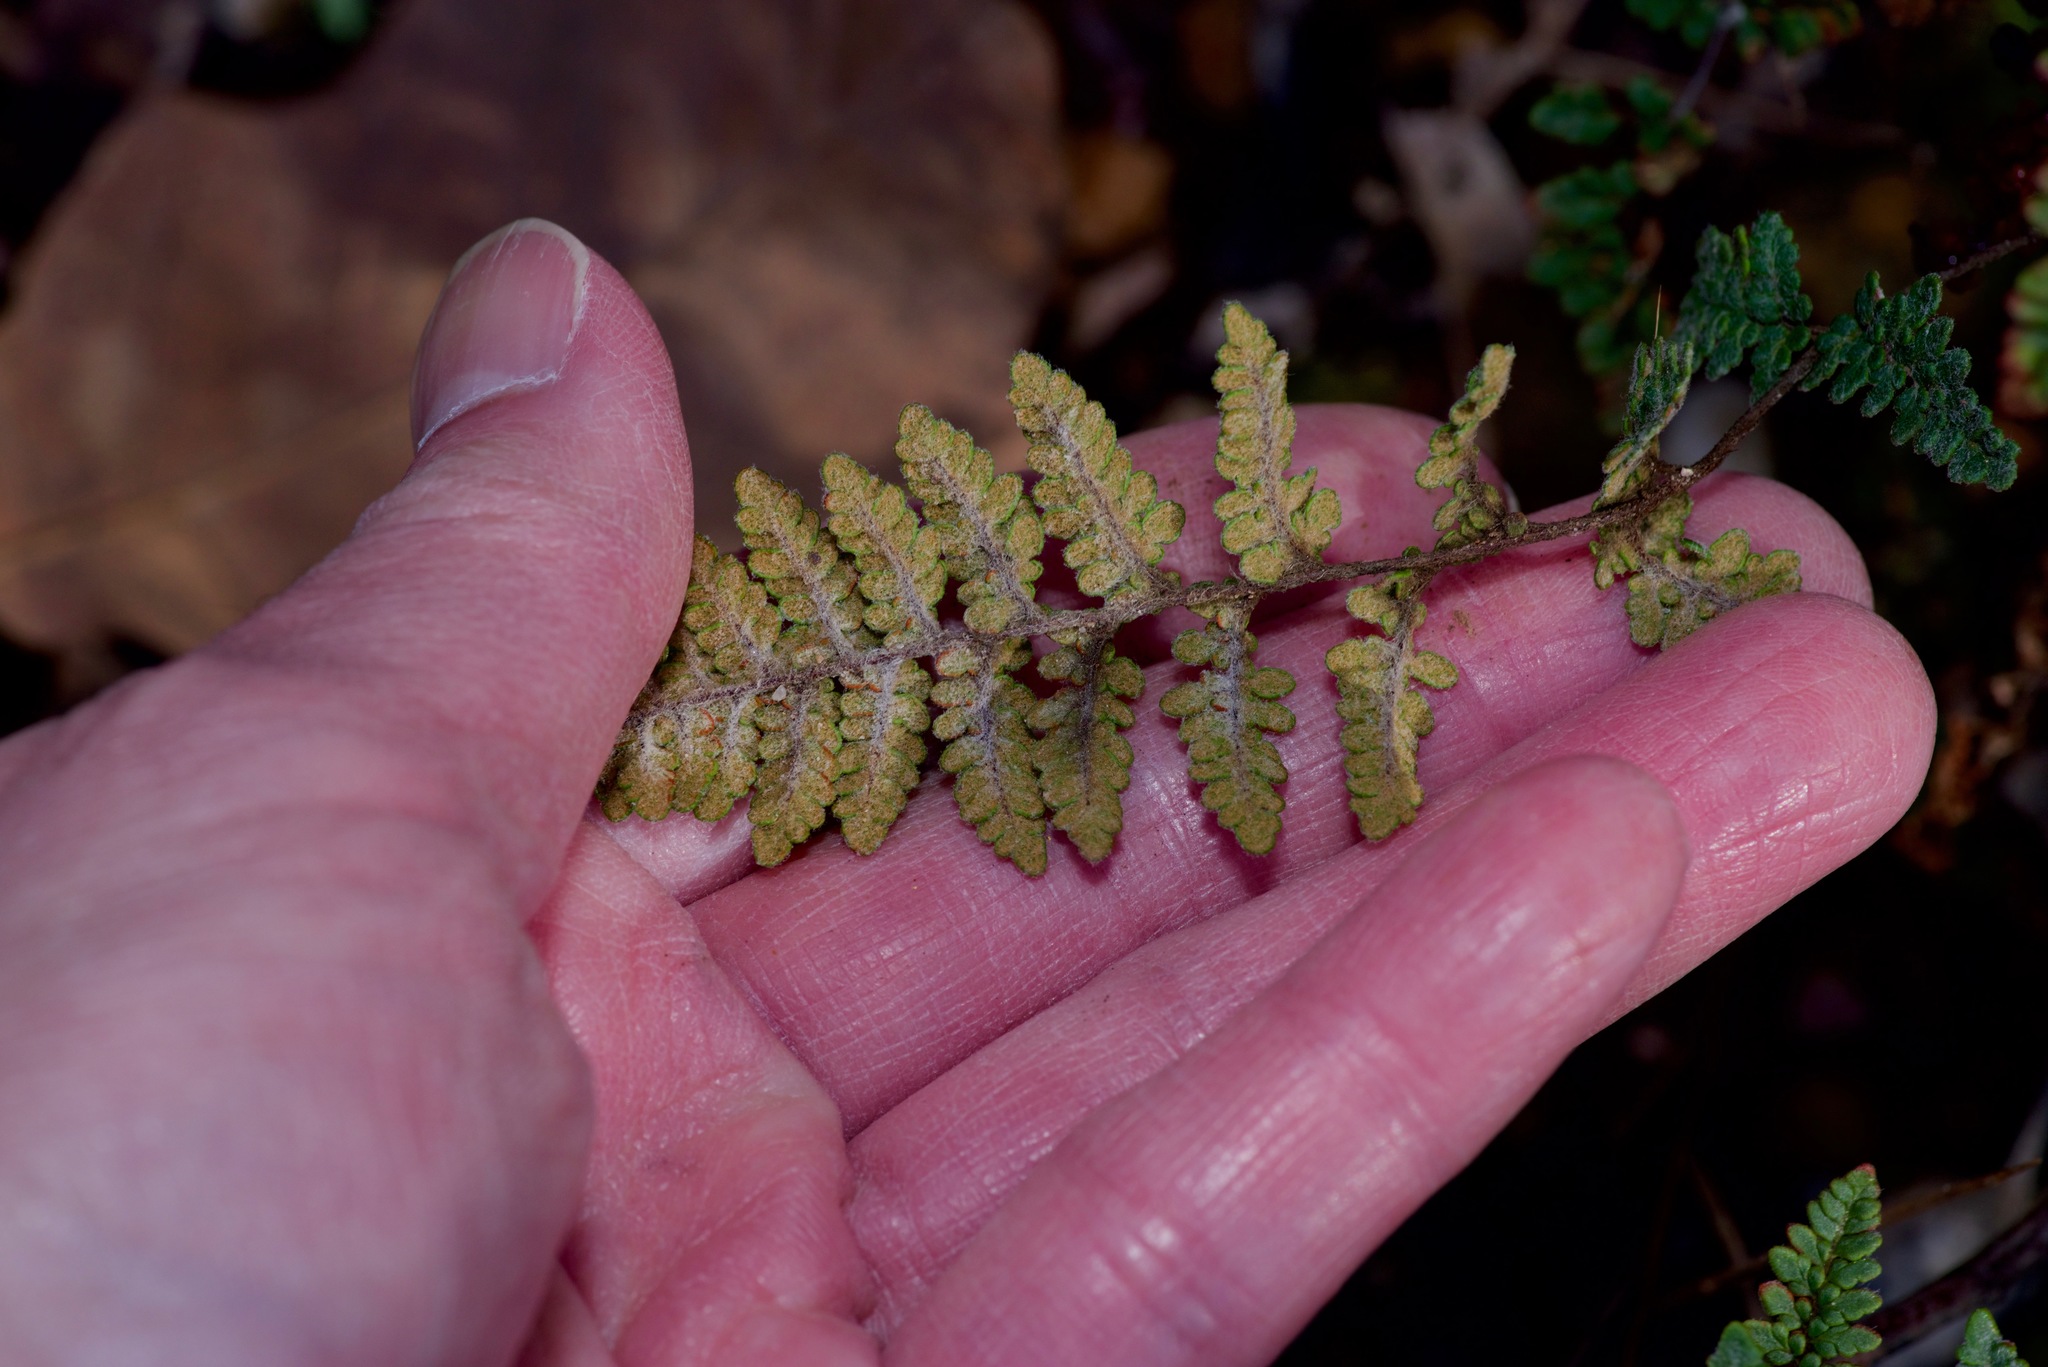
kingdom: Plantae
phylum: Tracheophyta
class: Polypodiopsida
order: Polypodiales
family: Pteridaceae
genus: Myriopteris
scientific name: Myriopteris tomentosa
